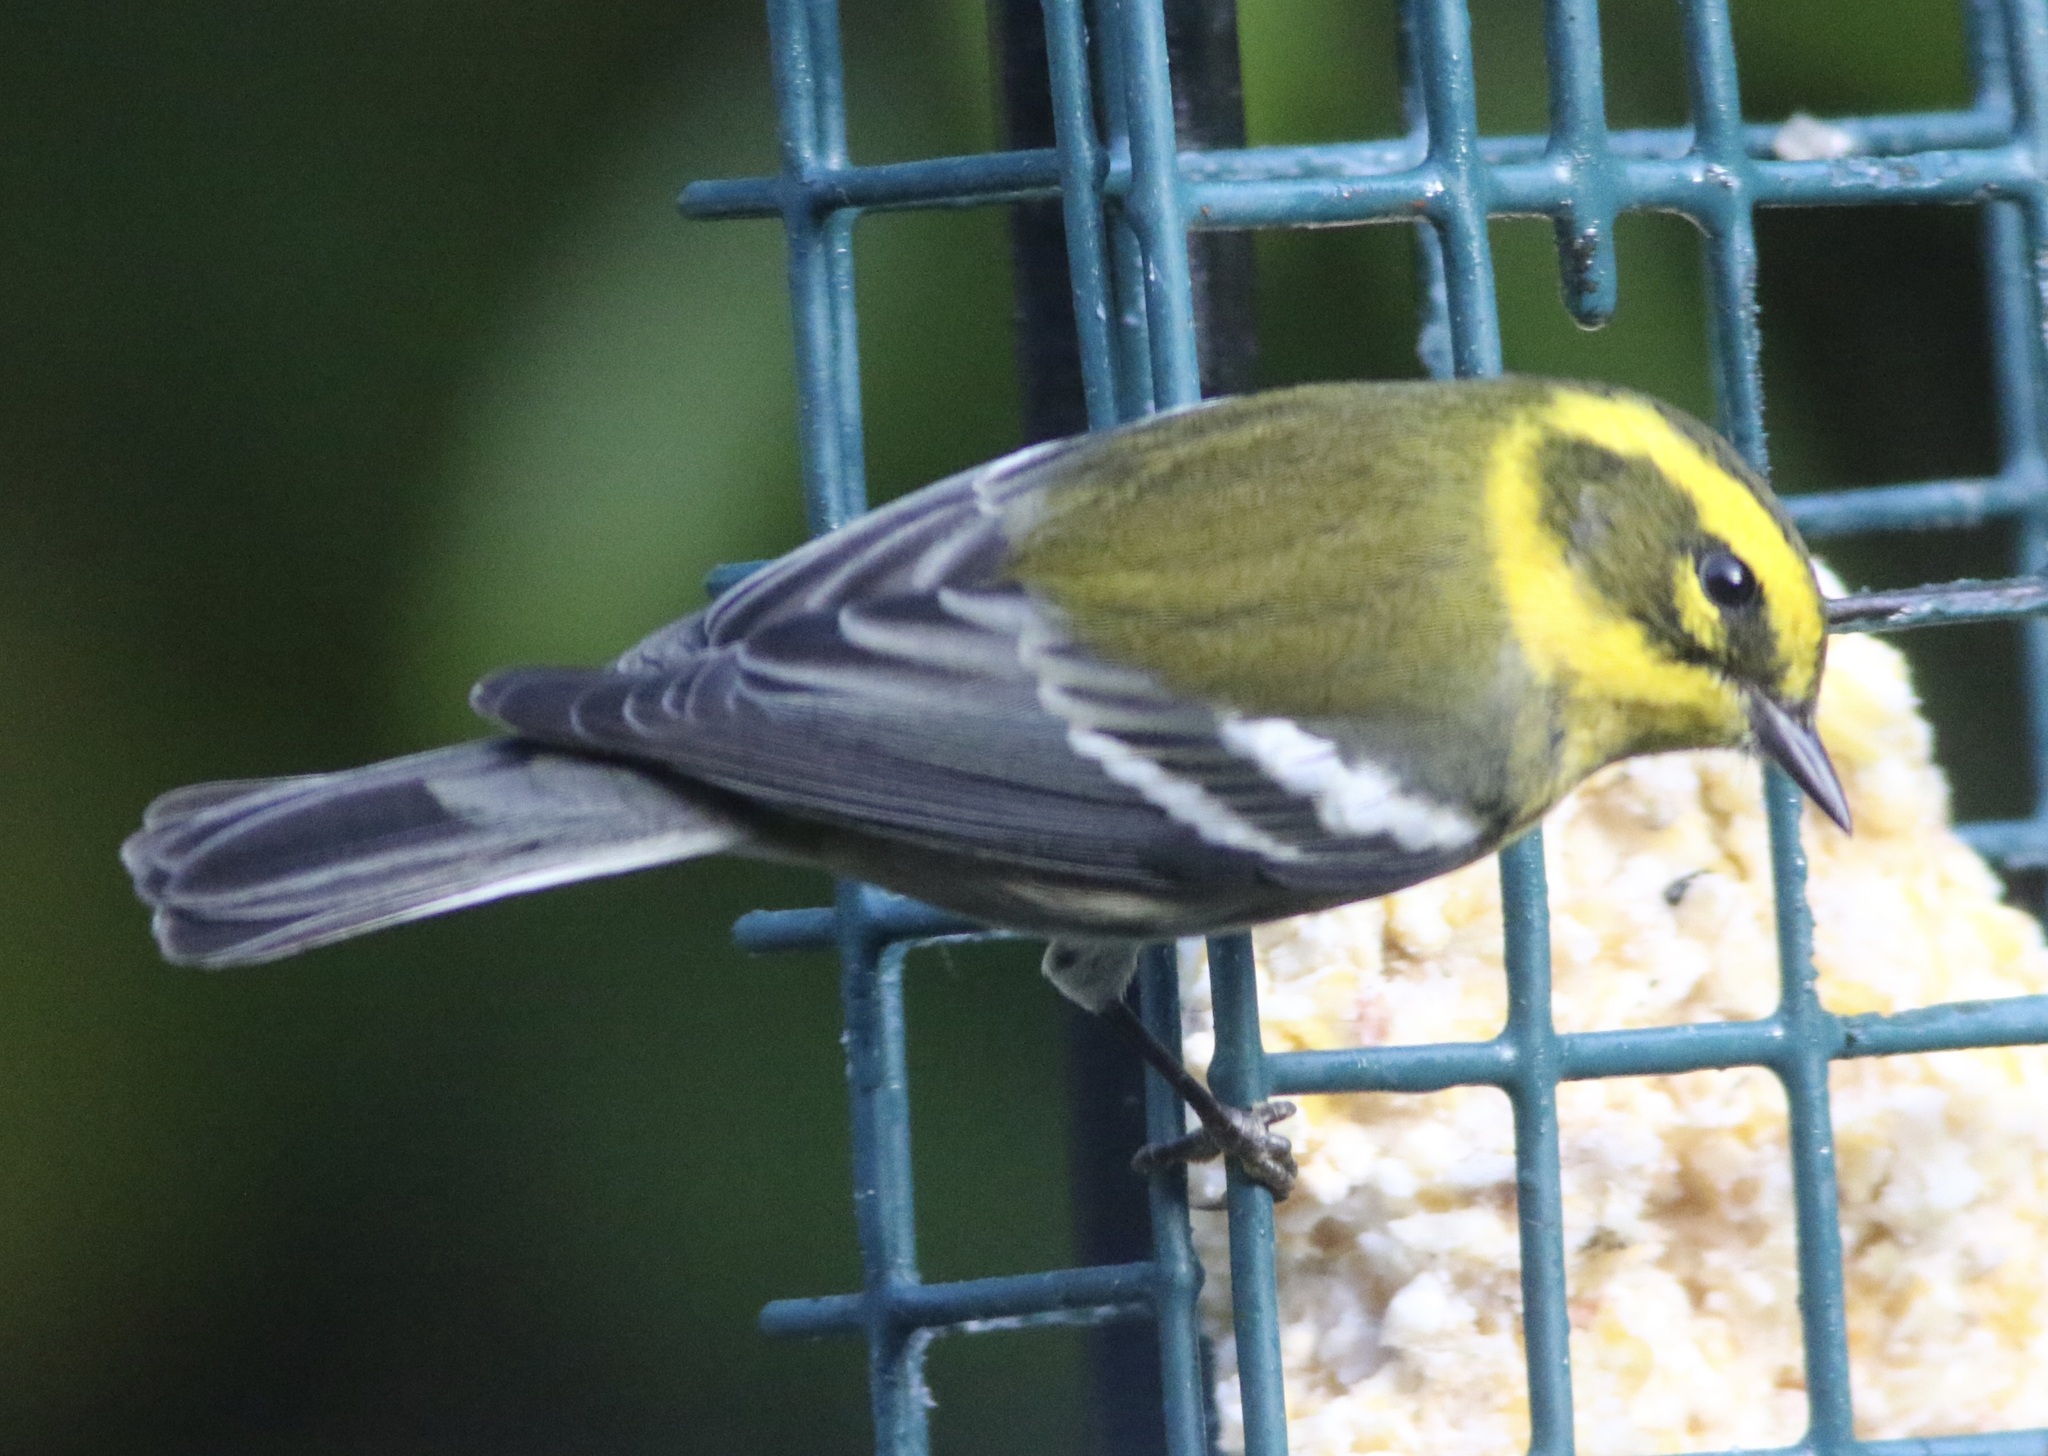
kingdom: Animalia
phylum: Chordata
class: Aves
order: Passeriformes
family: Parulidae
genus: Setophaga
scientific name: Setophaga townsendi
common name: Townsend's warbler
